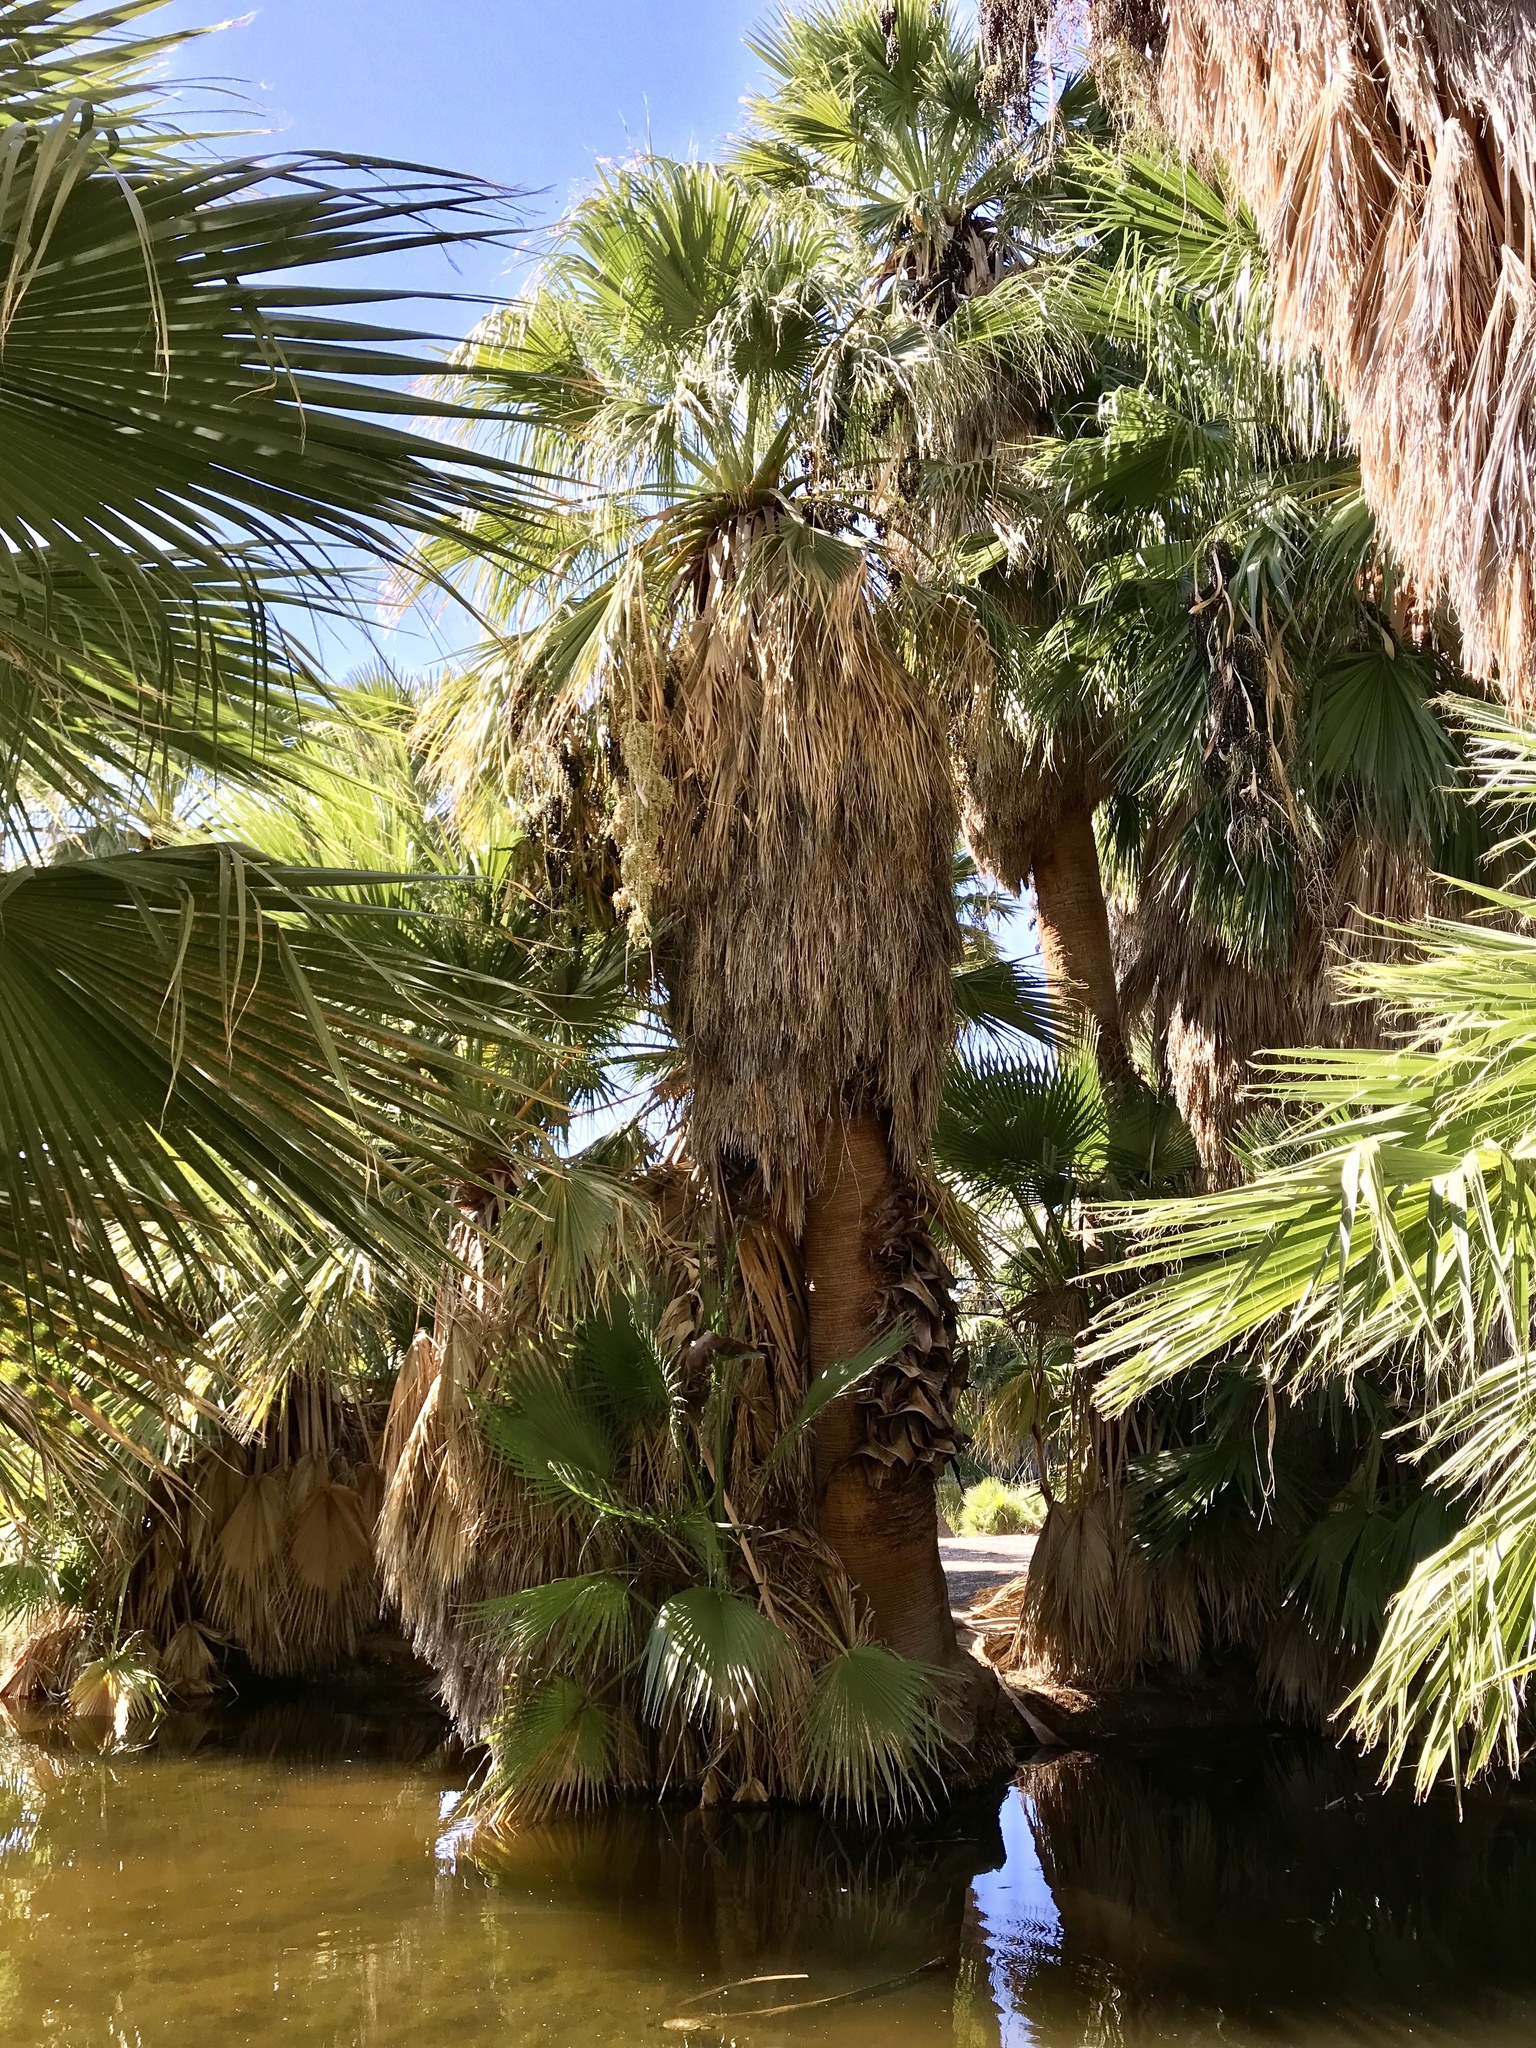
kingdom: Plantae
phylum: Tracheophyta
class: Liliopsida
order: Arecales
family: Arecaceae
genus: Washingtonia
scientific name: Washingtonia filifera
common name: California fan palm
